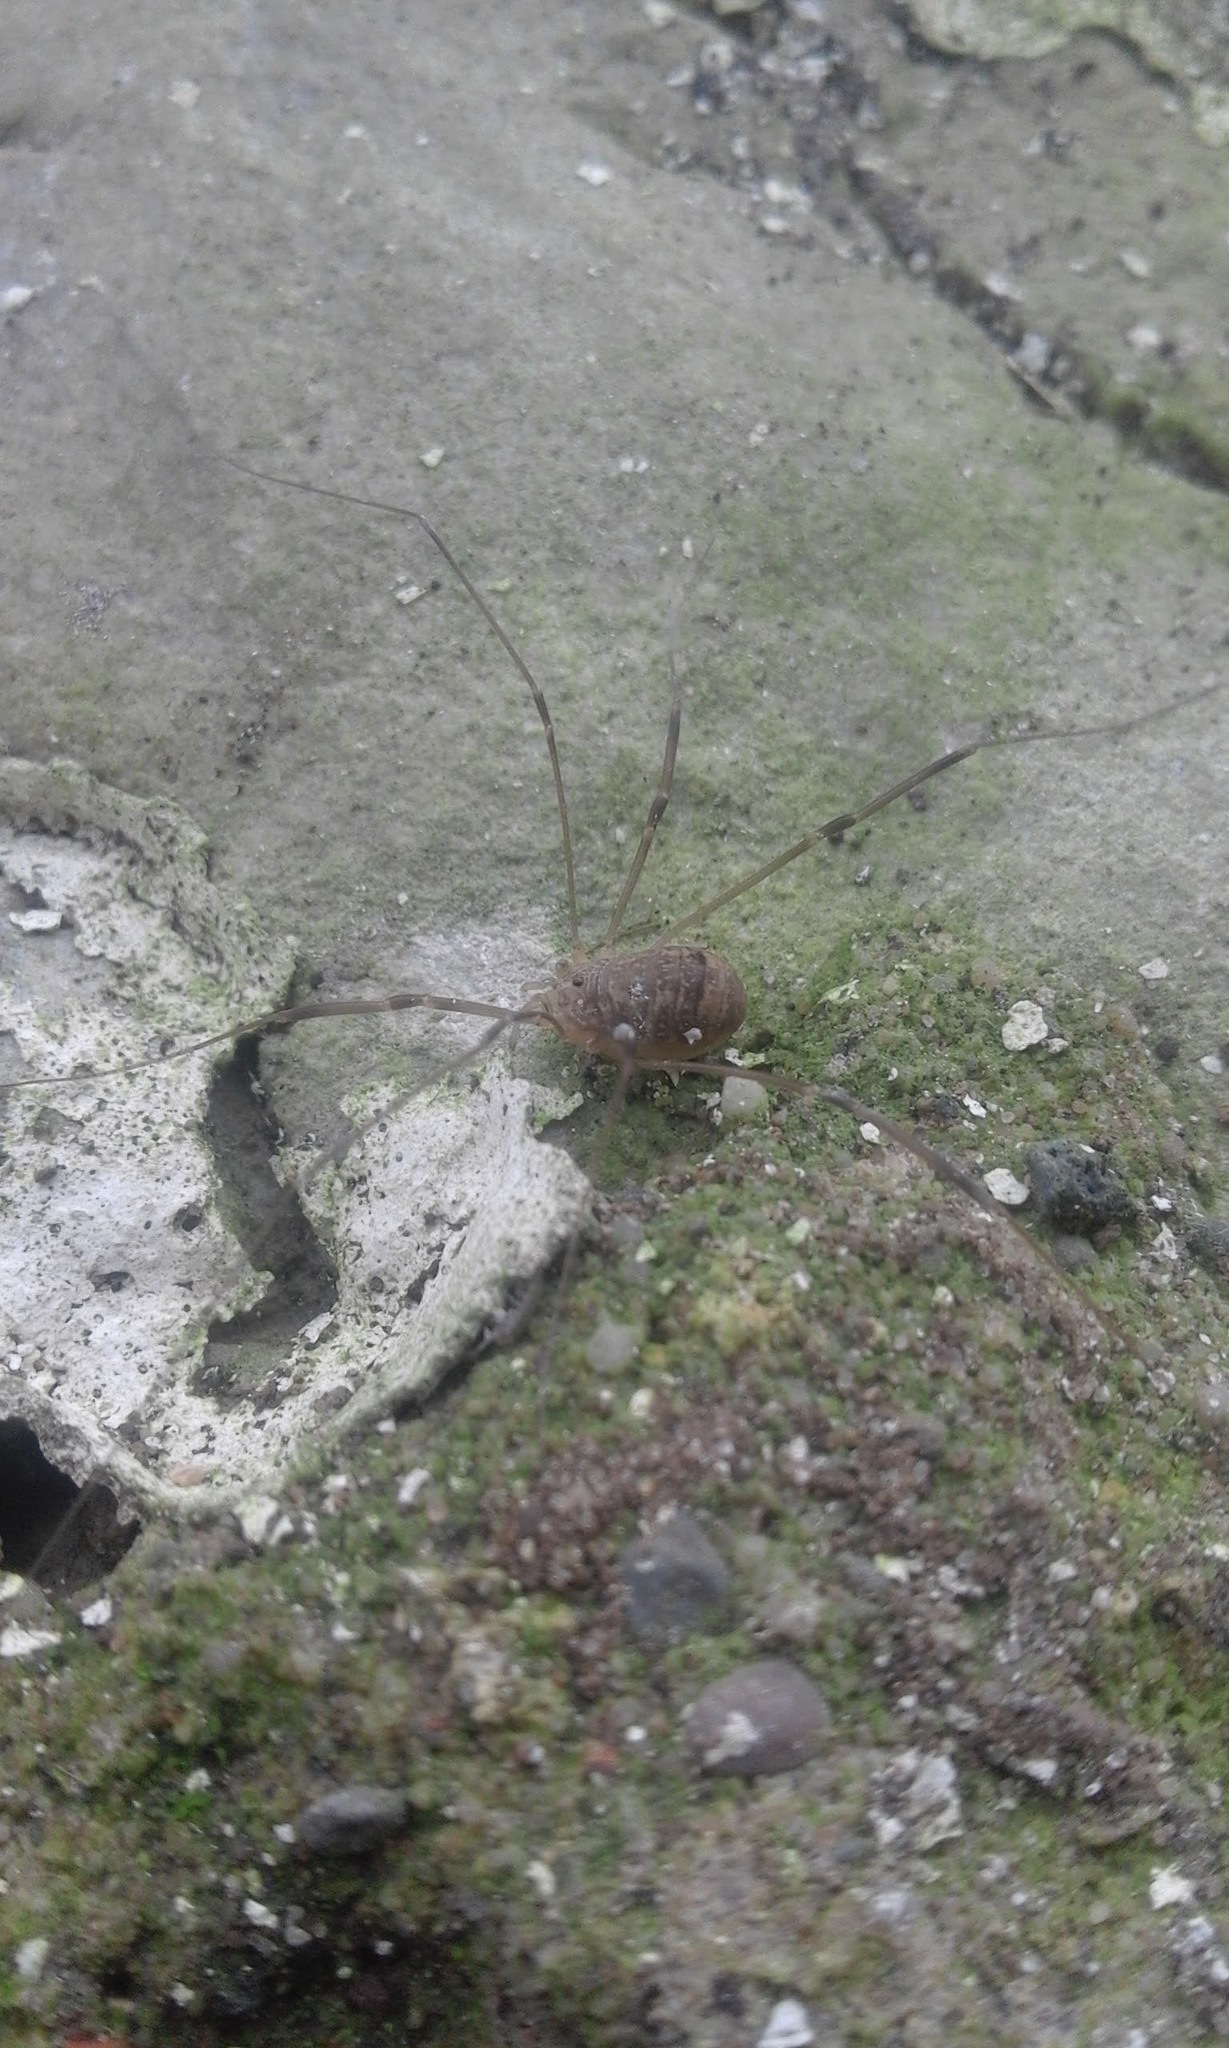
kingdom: Animalia
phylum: Arthropoda
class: Arachnida
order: Opiliones
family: Sclerosomatidae
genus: Nelima
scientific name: Nelima gothica
